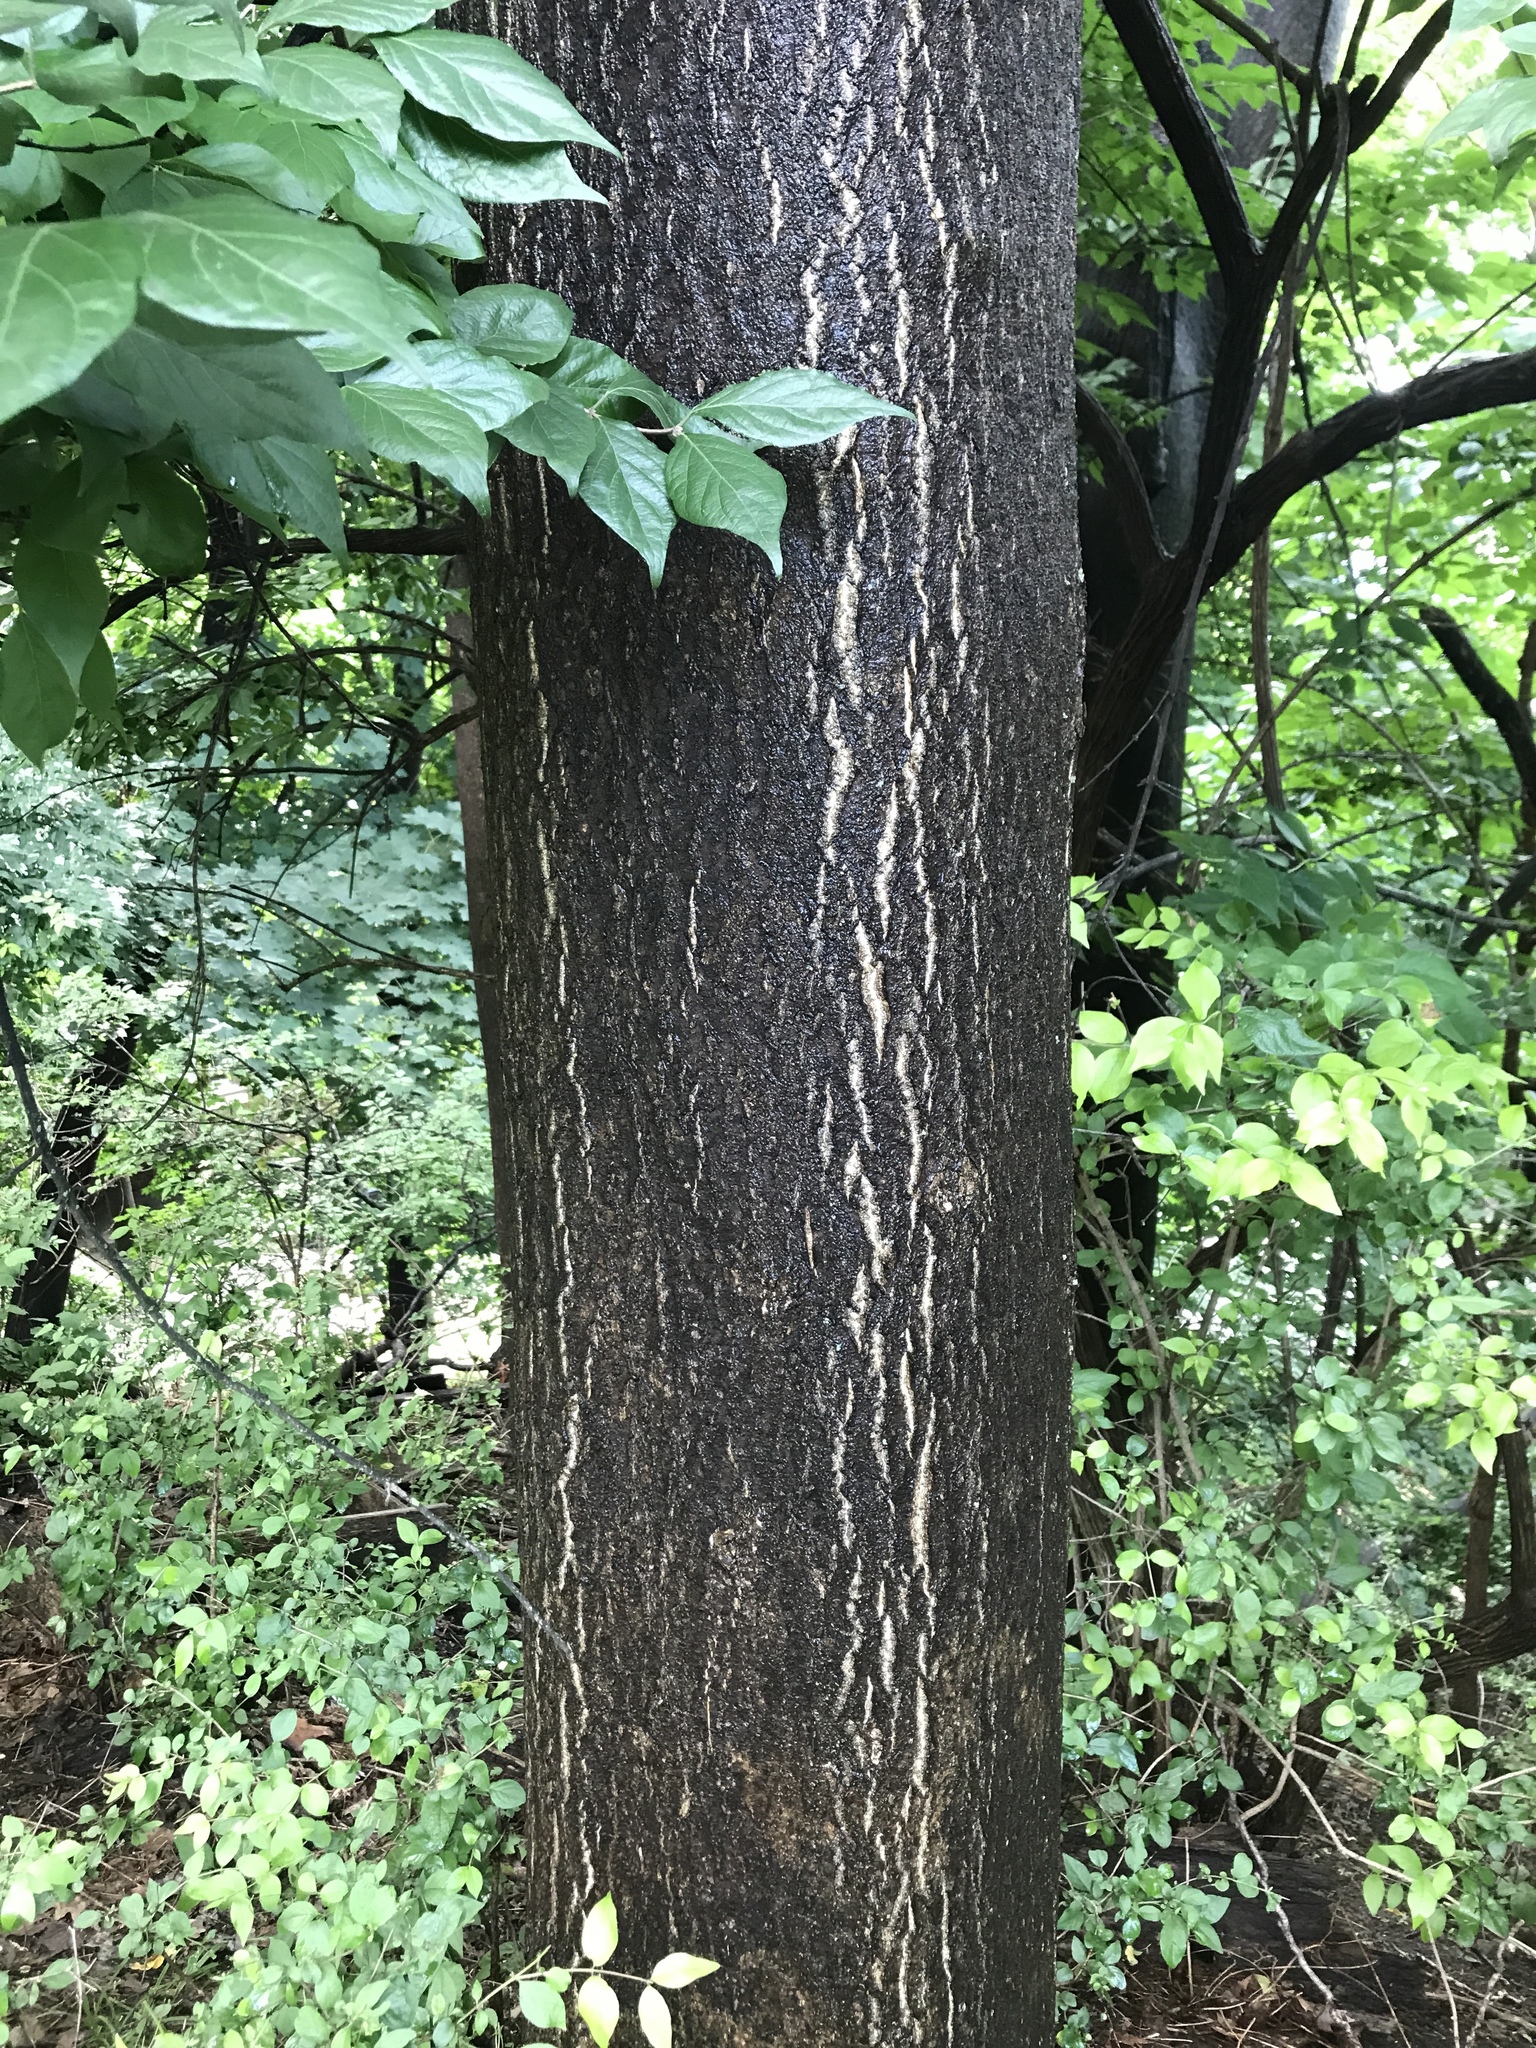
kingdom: Plantae
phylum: Tracheophyta
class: Magnoliopsida
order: Sapindales
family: Simaroubaceae
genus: Ailanthus
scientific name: Ailanthus altissima
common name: Tree-of-heaven
